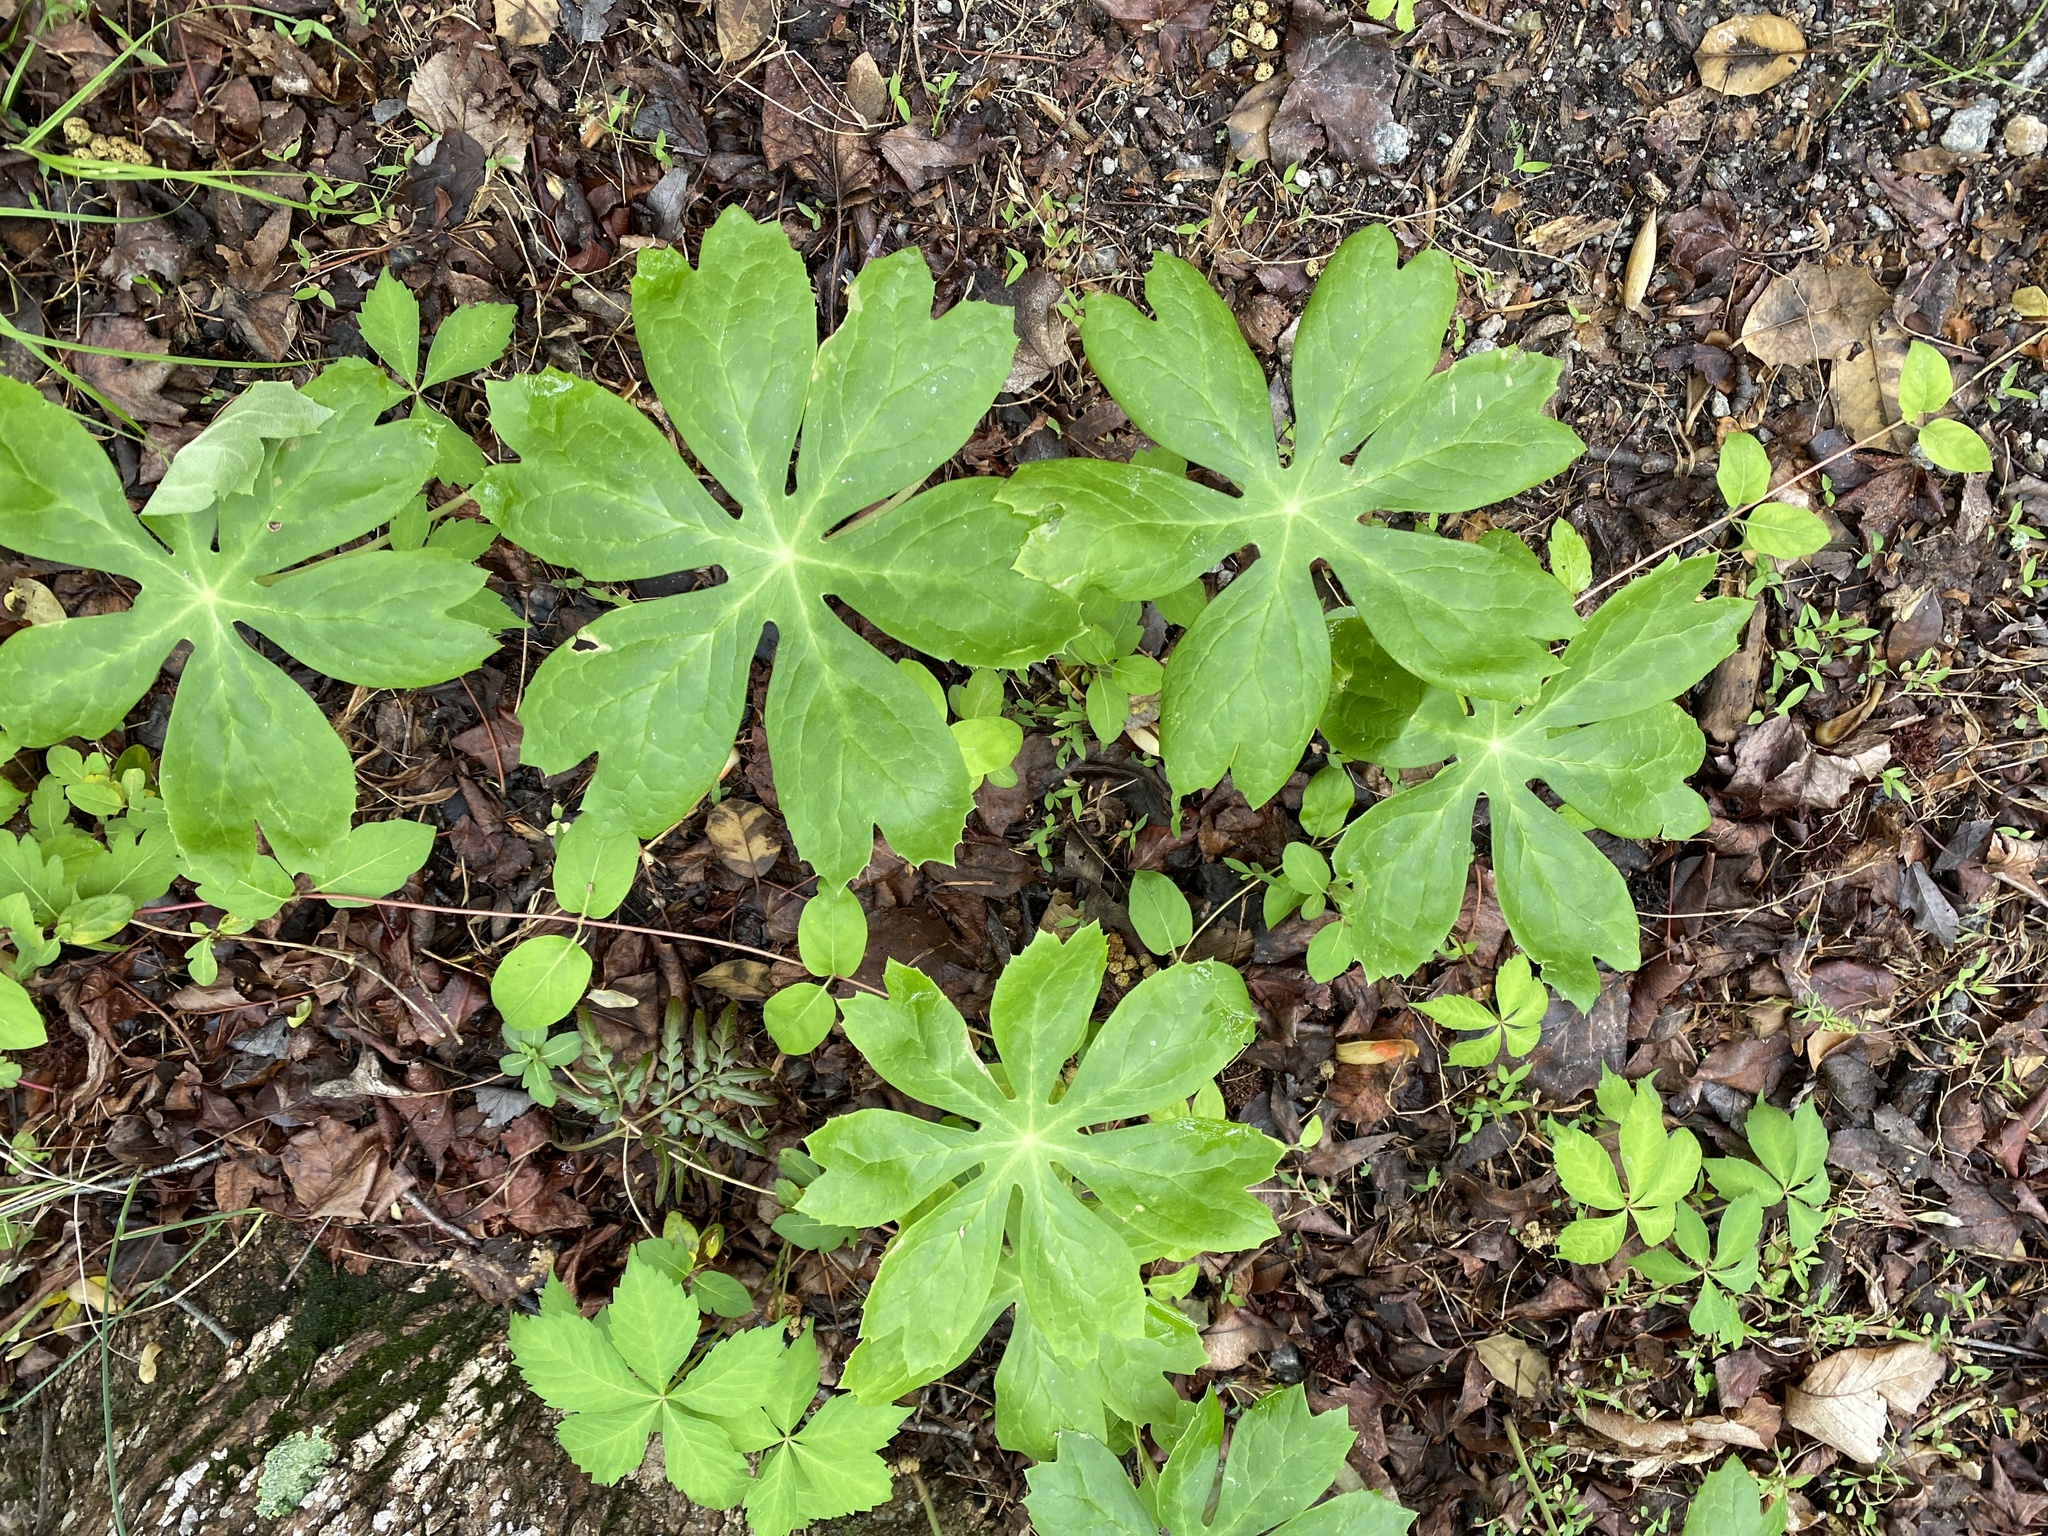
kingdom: Plantae
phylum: Tracheophyta
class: Magnoliopsida
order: Ranunculales
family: Berberidaceae
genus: Podophyllum
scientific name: Podophyllum peltatum
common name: Wild mandrake
